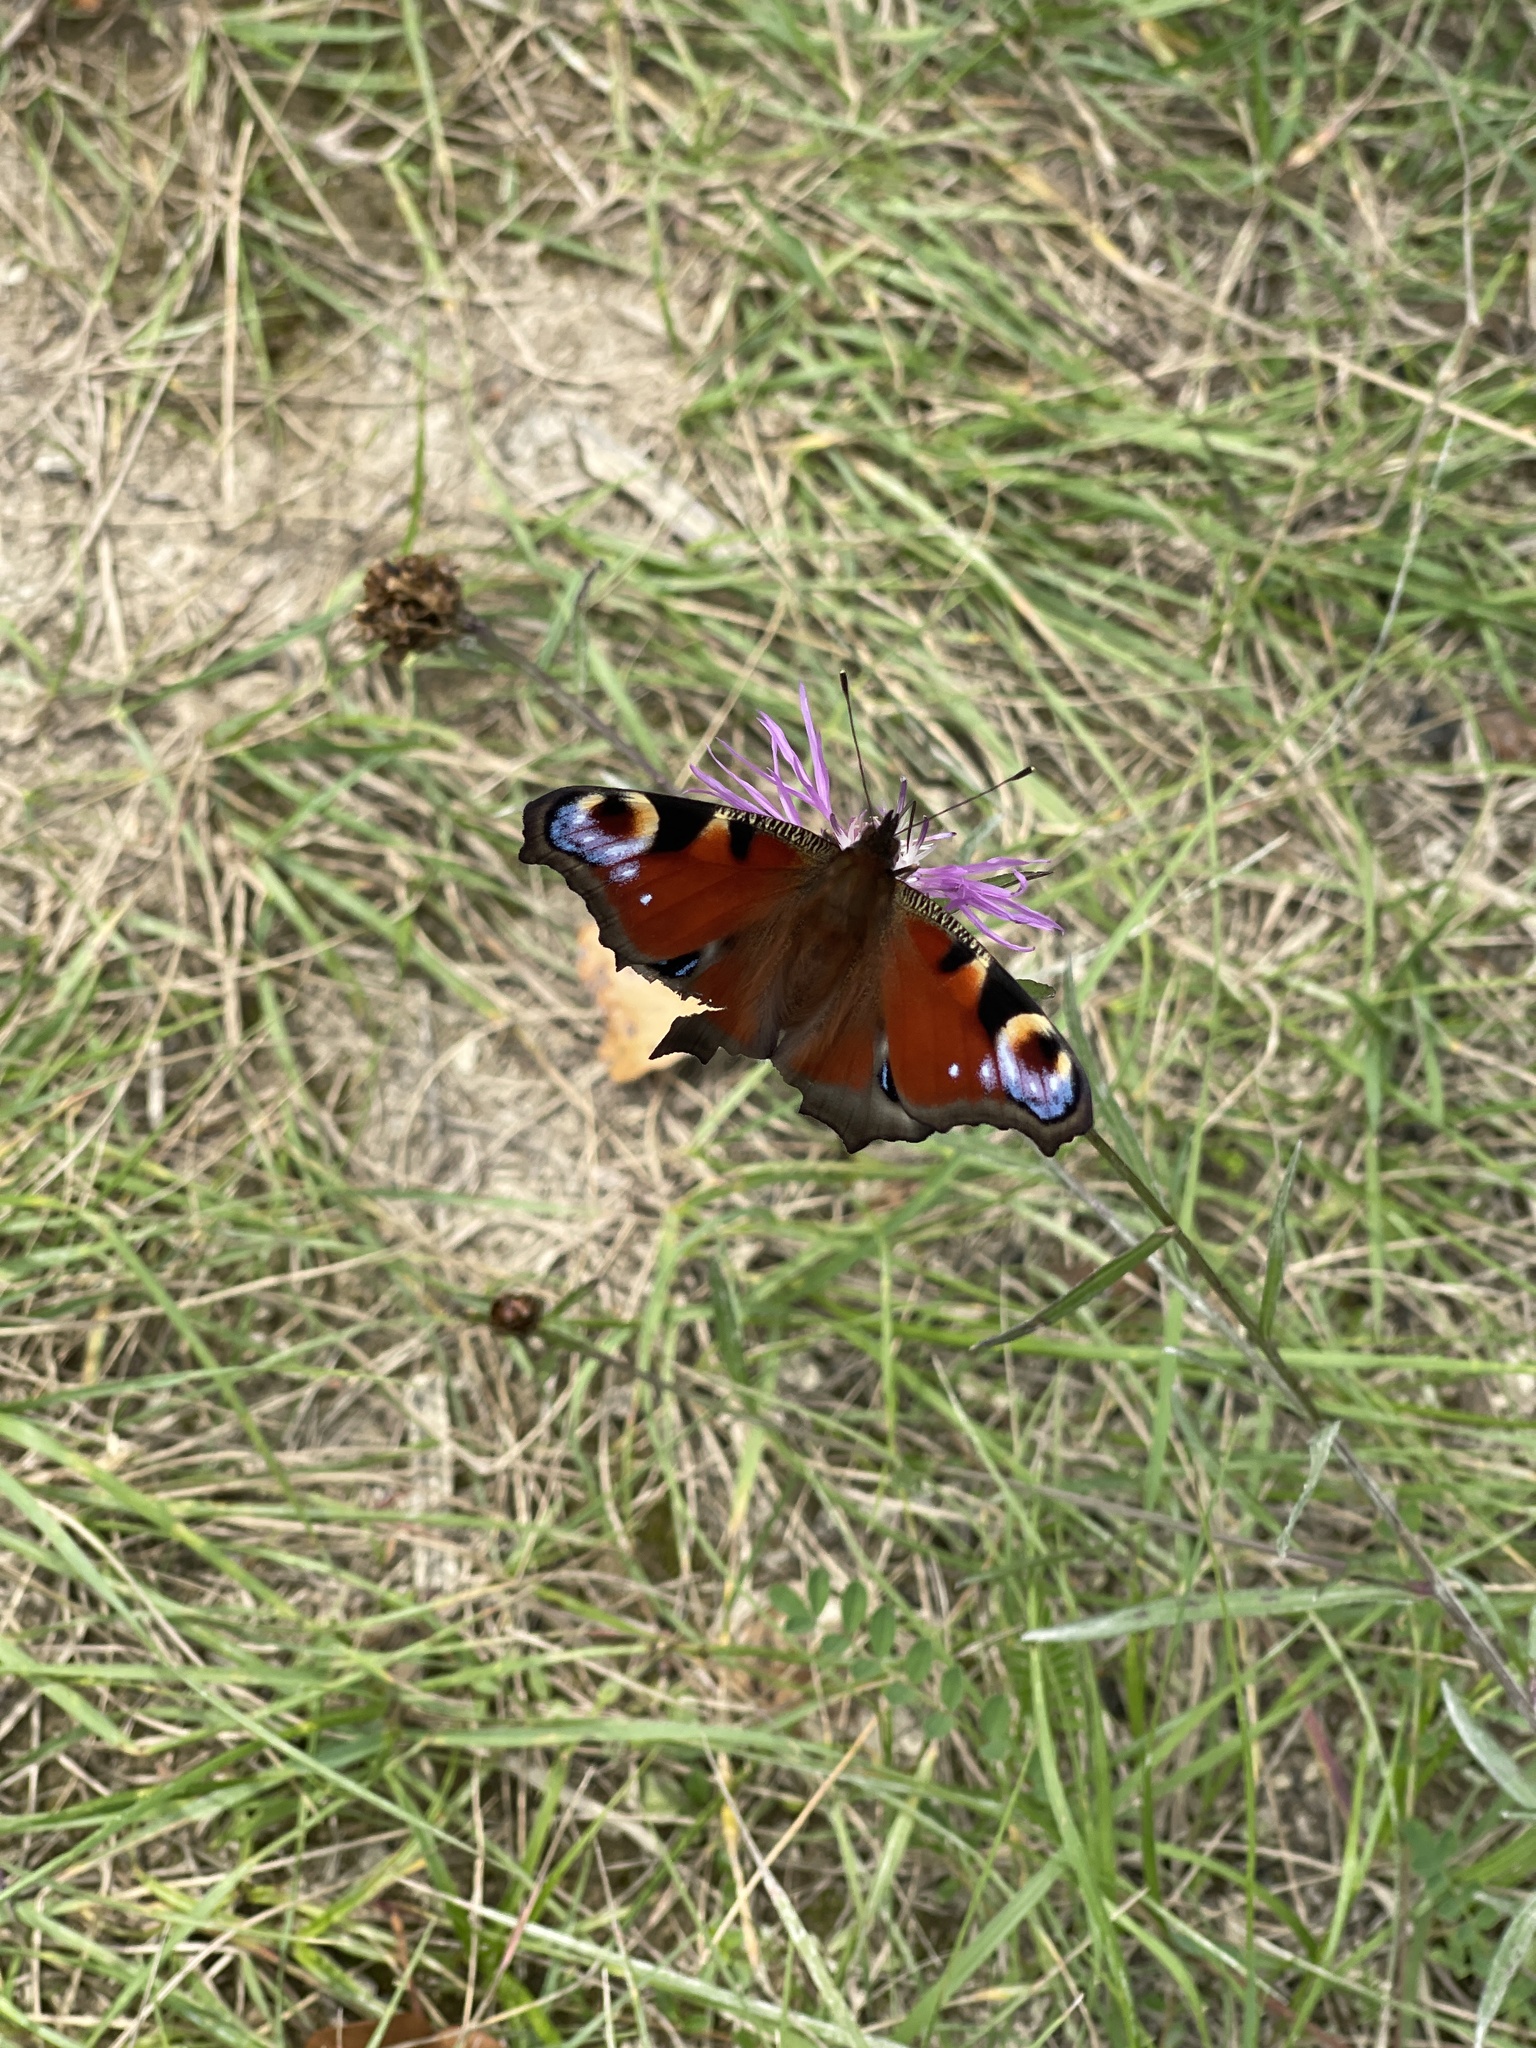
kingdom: Animalia
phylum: Arthropoda
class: Insecta
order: Lepidoptera
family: Nymphalidae
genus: Aglais
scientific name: Aglais io
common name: Peacock
